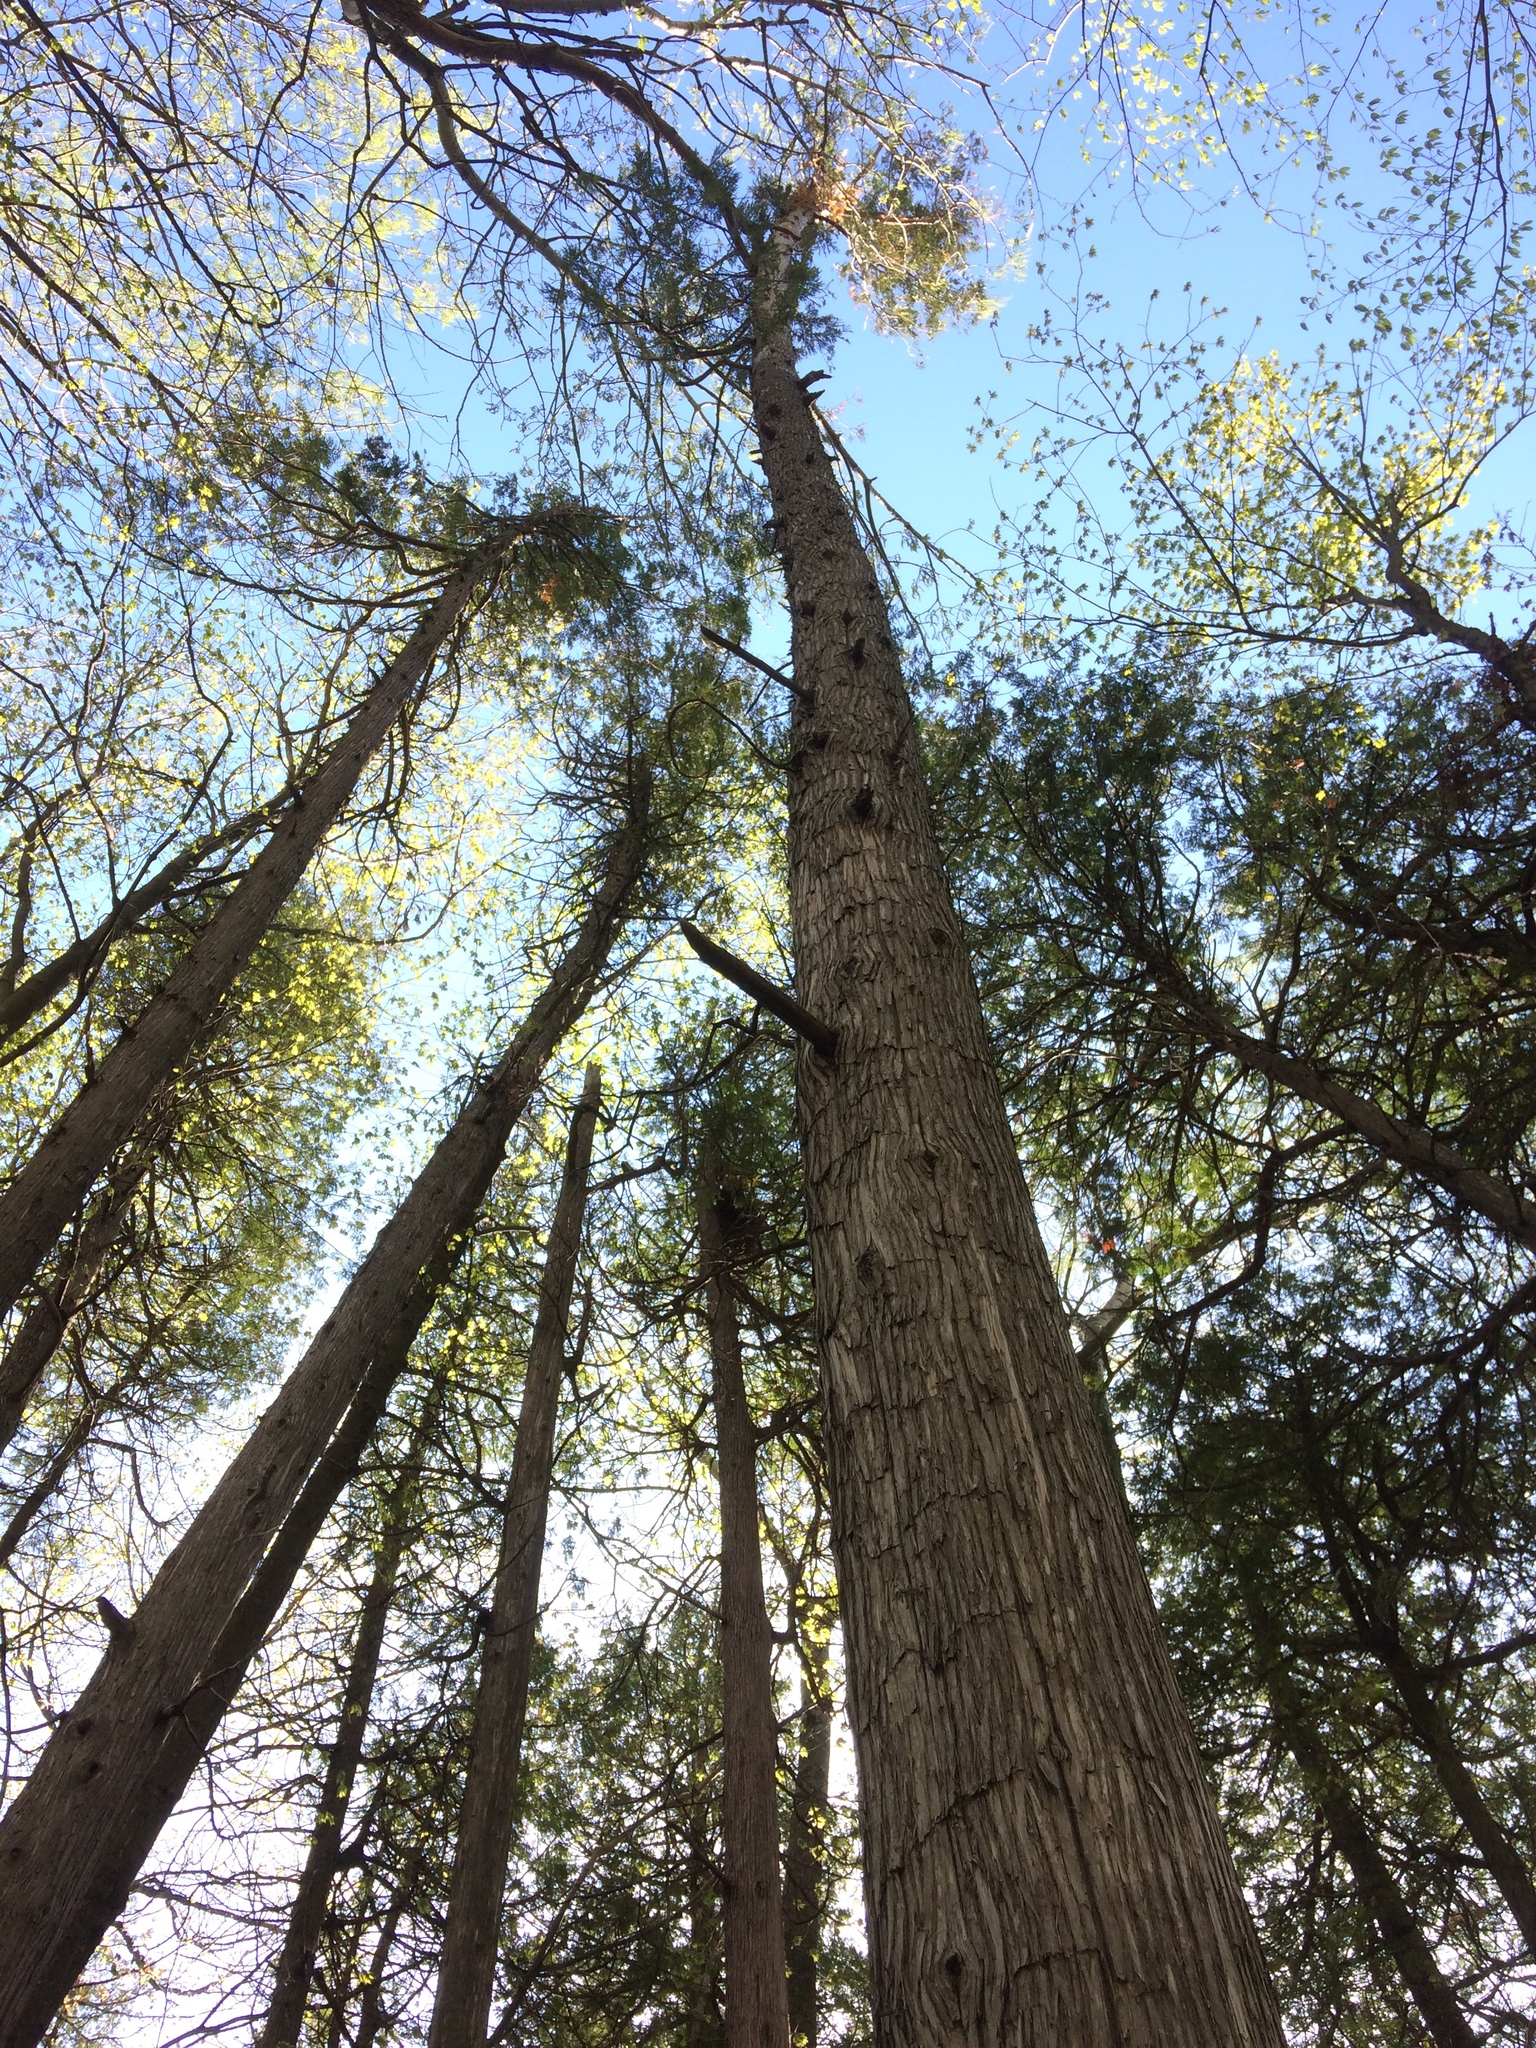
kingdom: Plantae
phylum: Tracheophyta
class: Pinopsida
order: Pinales
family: Cupressaceae
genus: Thuja
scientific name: Thuja occidentalis
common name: Northern white-cedar
